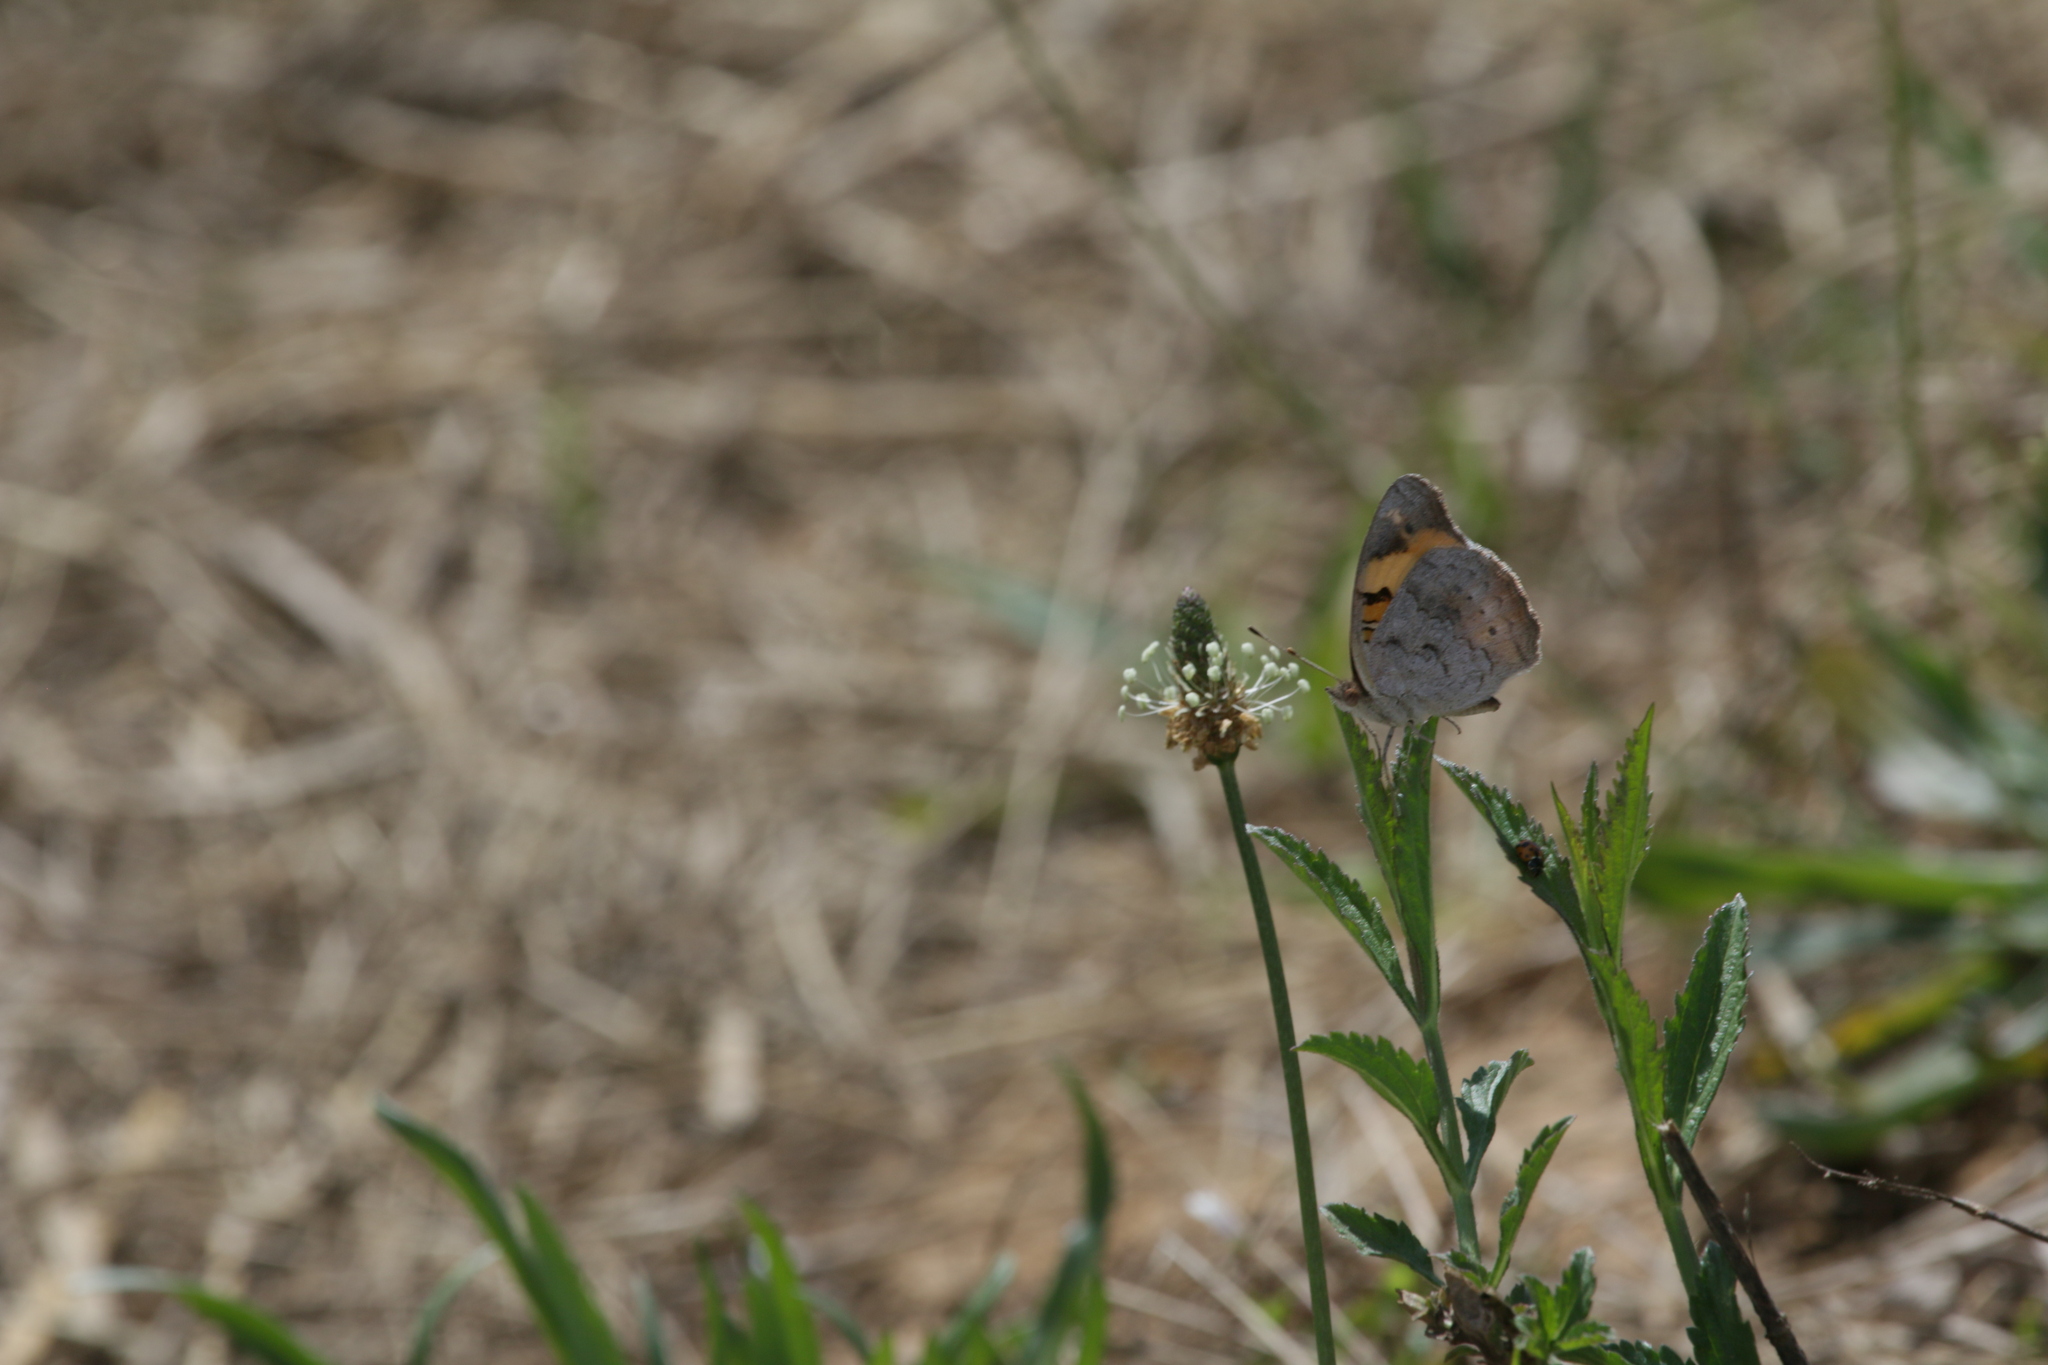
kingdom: Animalia
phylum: Arthropoda
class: Insecta
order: Lepidoptera
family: Nymphalidae
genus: Junonia
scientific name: Junonia hierta
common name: Yellow pansy
